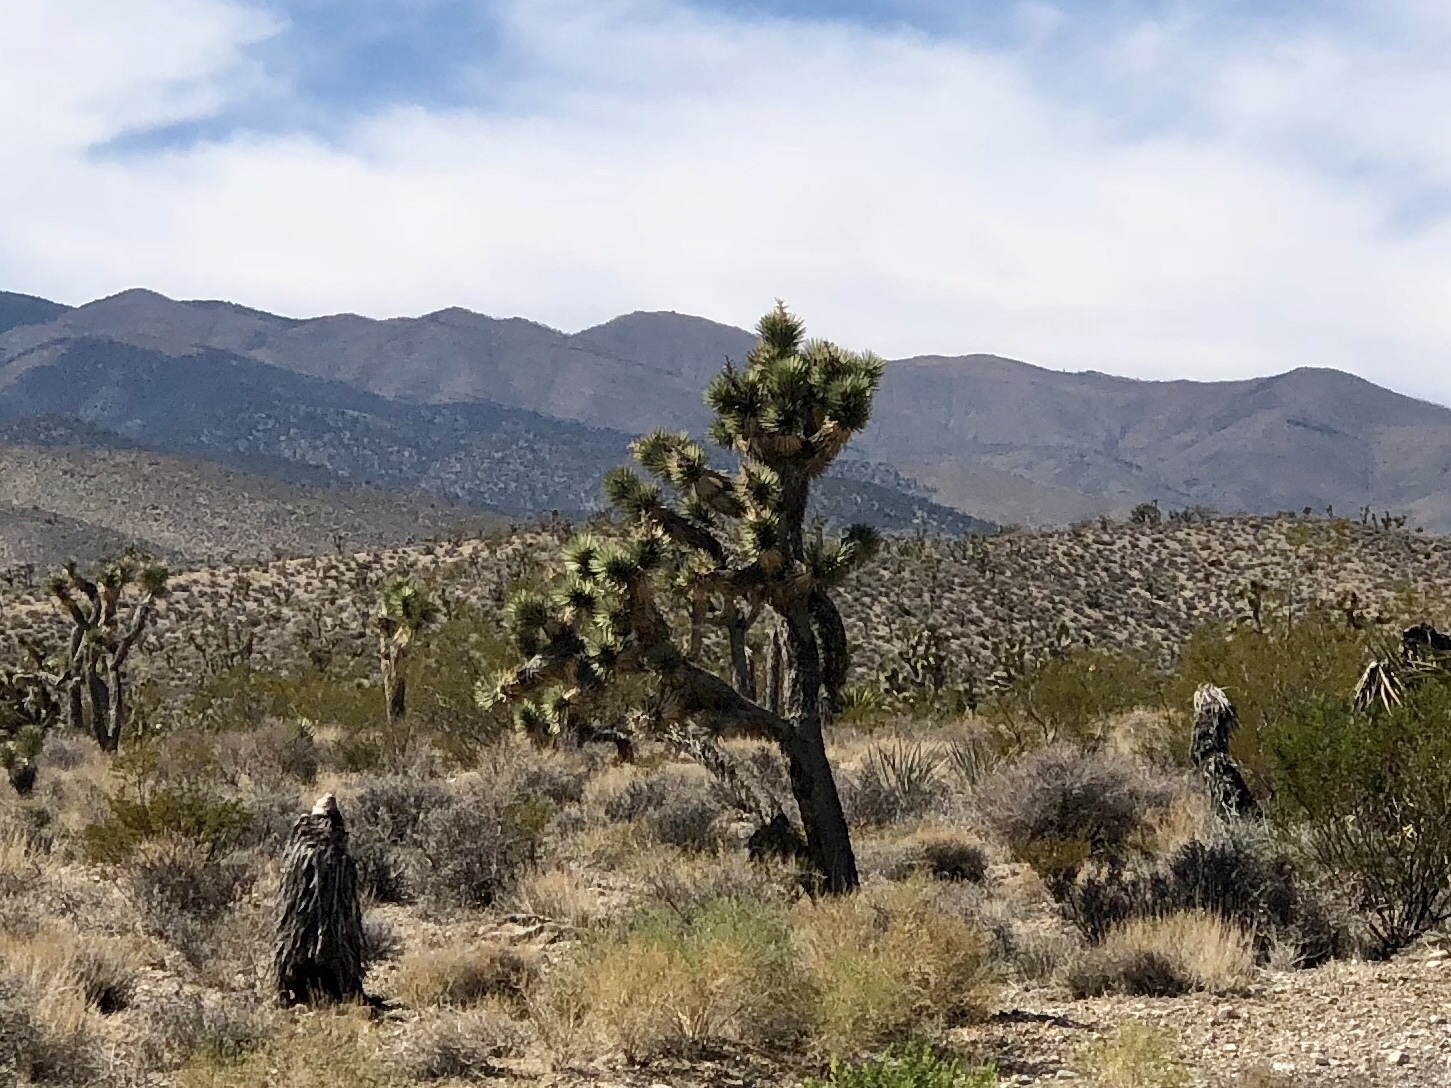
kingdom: Plantae
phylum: Tracheophyta
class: Liliopsida
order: Asparagales
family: Asparagaceae
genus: Yucca
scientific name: Yucca brevifolia
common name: Joshua tree
